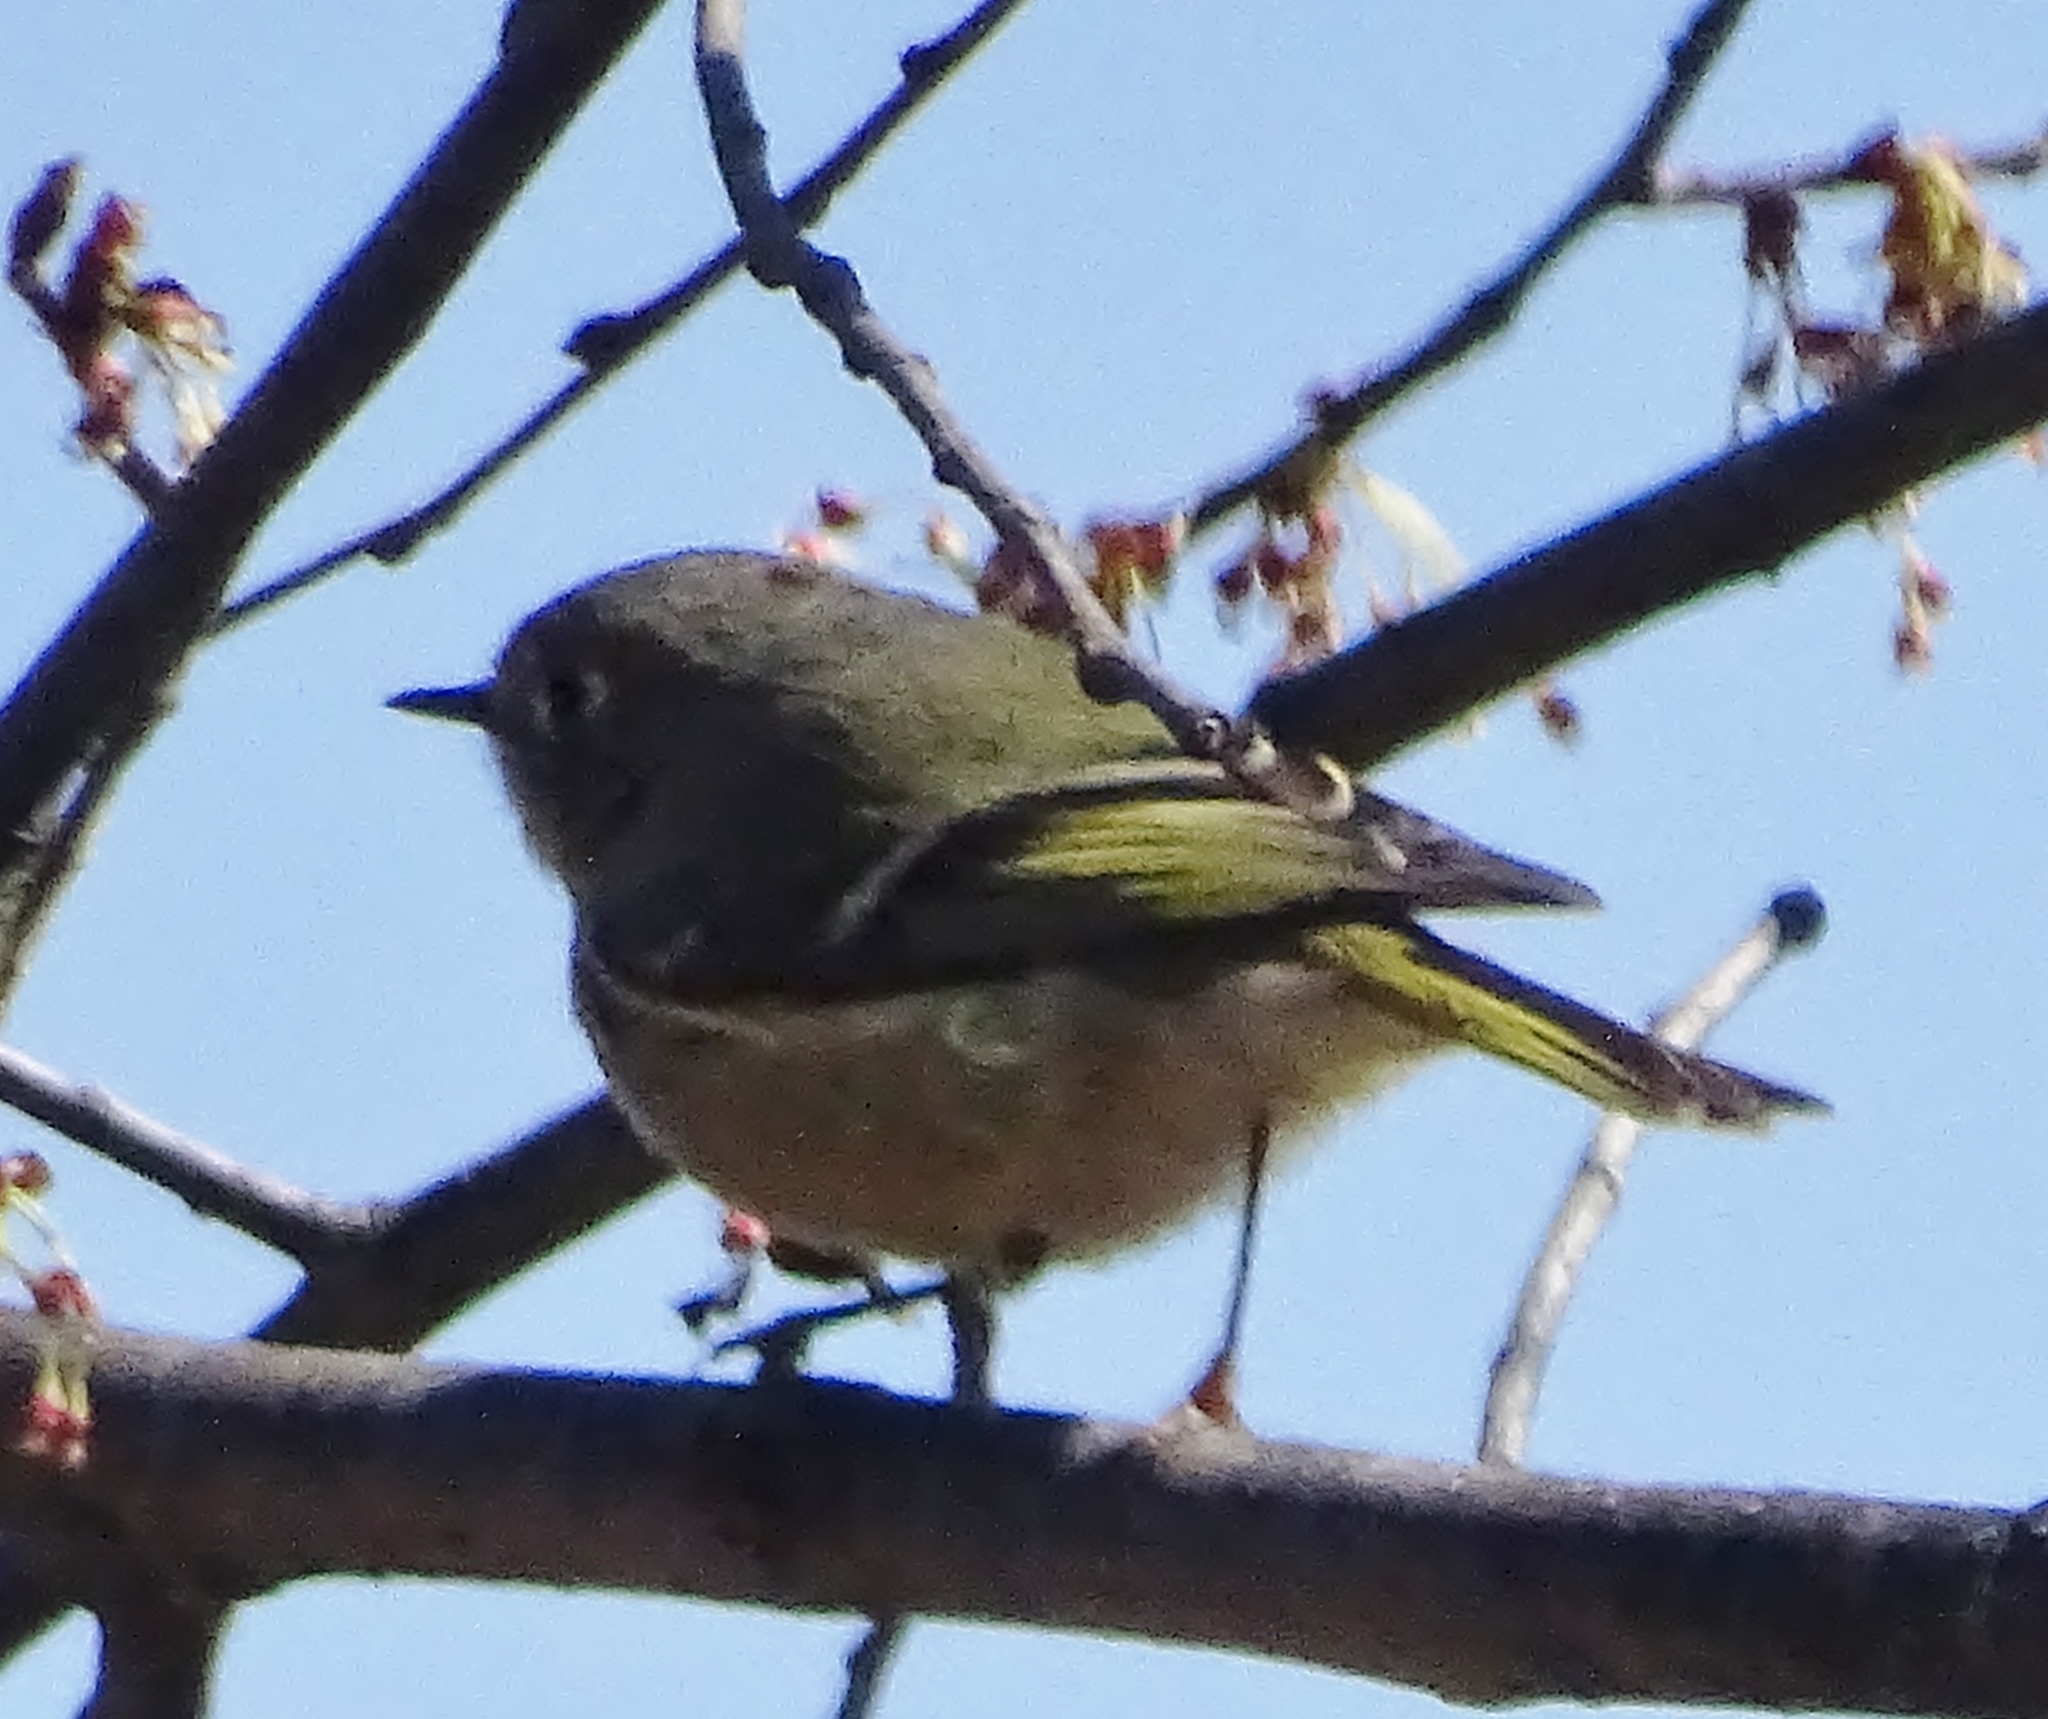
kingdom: Animalia
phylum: Chordata
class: Aves
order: Passeriformes
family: Regulidae
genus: Regulus
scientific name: Regulus calendula
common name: Ruby-crowned kinglet
